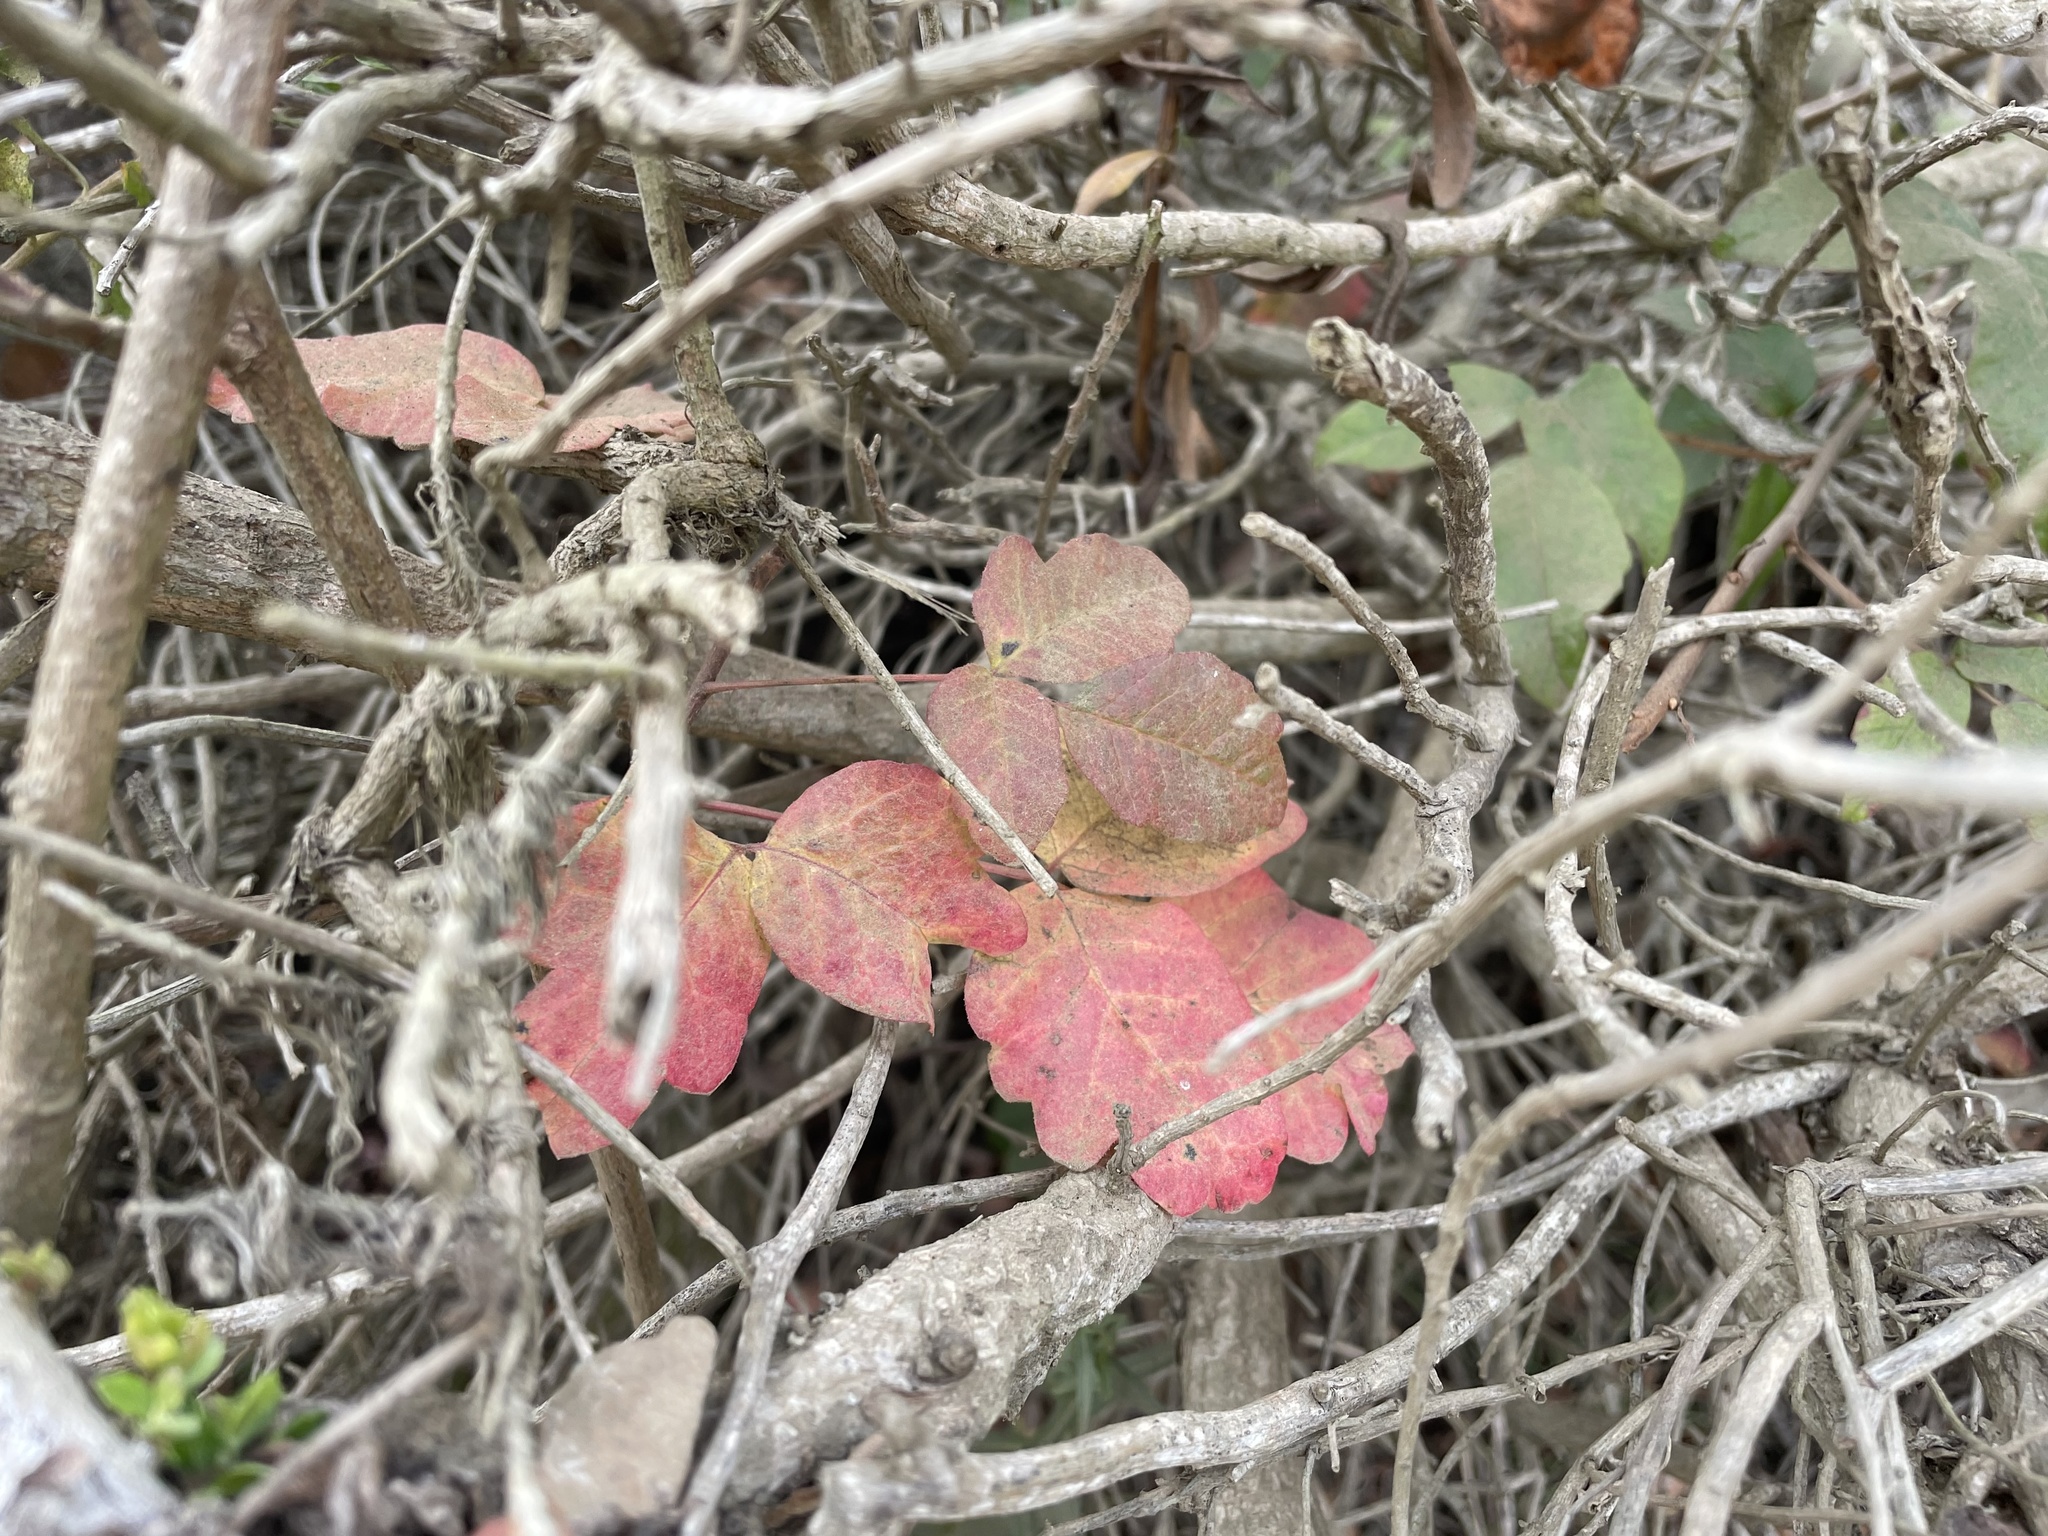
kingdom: Plantae
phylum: Tracheophyta
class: Magnoliopsida
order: Sapindales
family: Anacardiaceae
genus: Toxicodendron
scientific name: Toxicodendron diversilobum
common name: Pacific poison-oak
